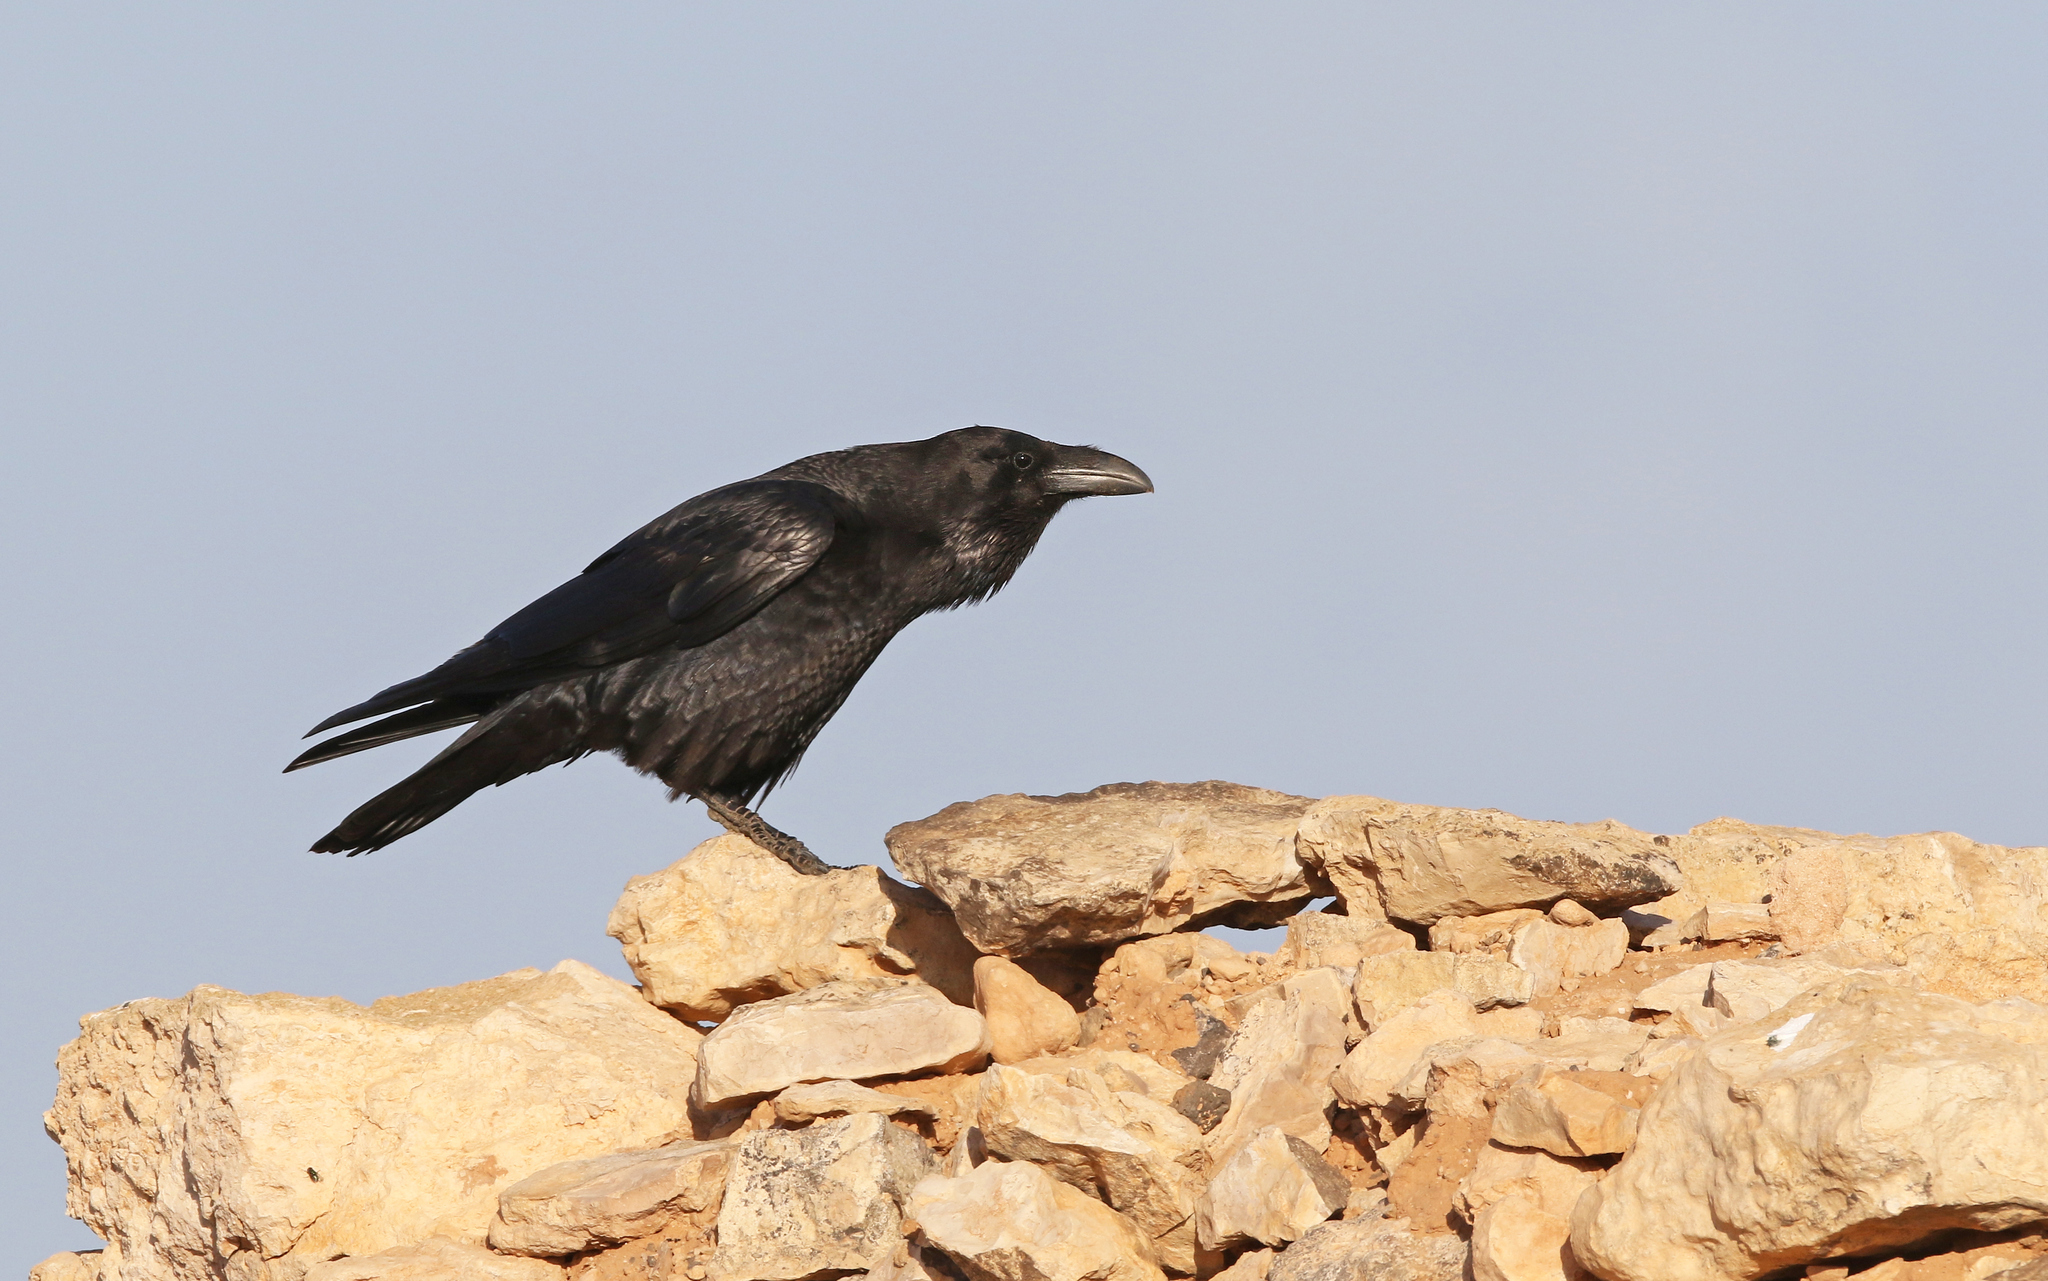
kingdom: Animalia
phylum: Chordata
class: Aves
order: Passeriformes
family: Corvidae
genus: Corvus
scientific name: Corvus corax
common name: Common raven
